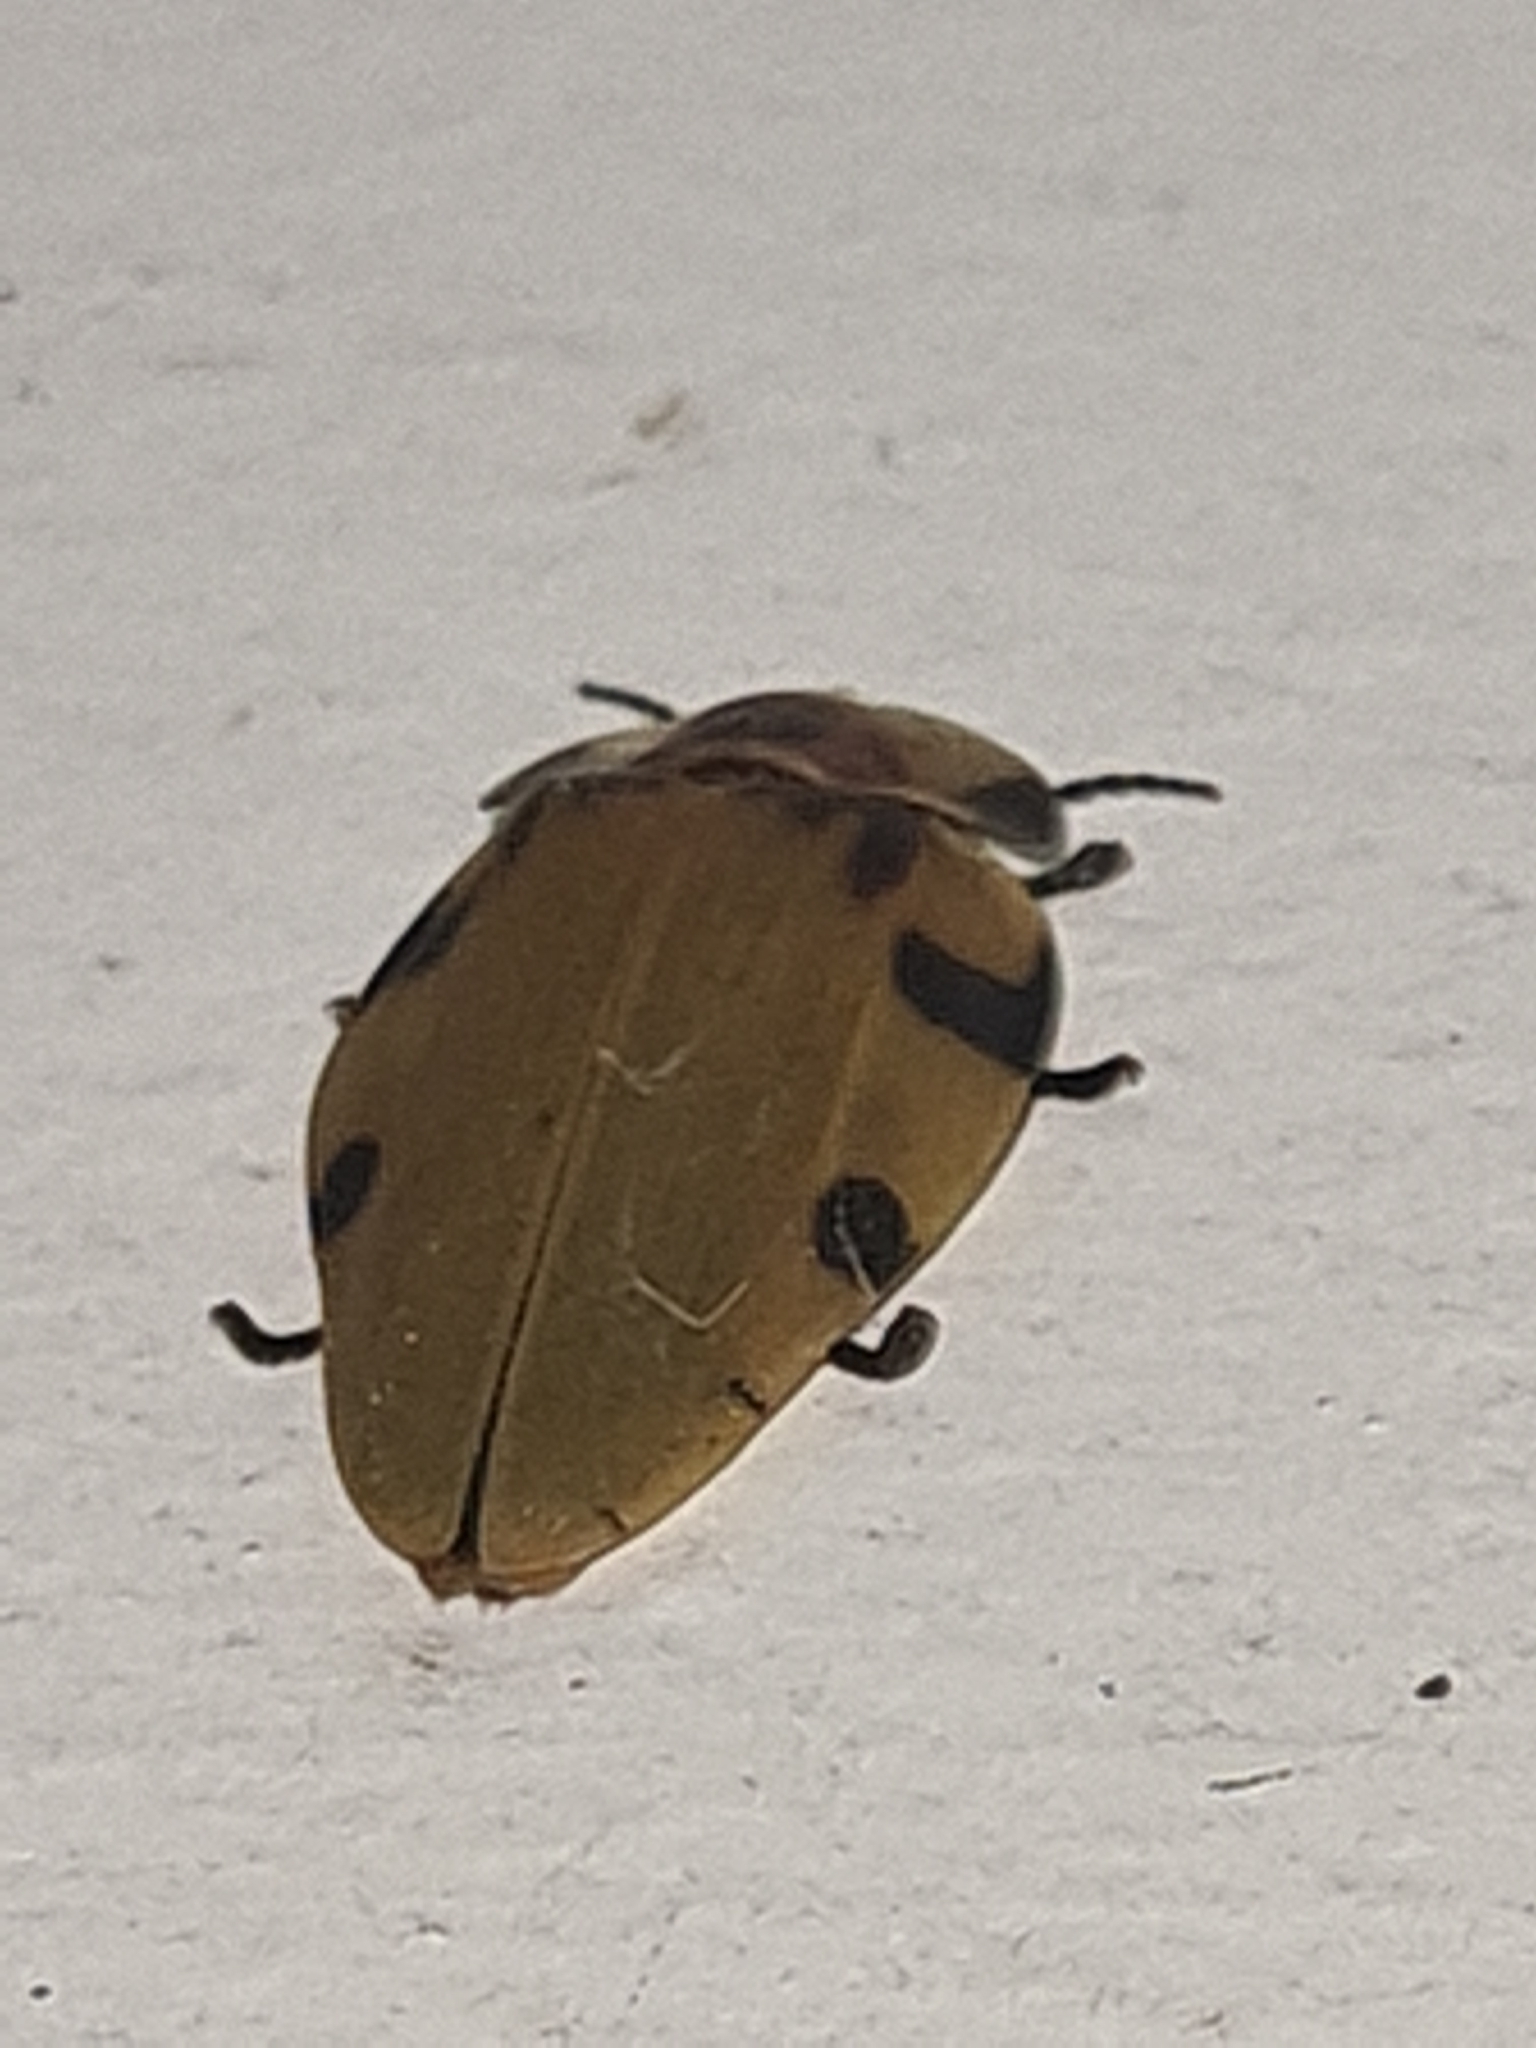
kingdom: Animalia
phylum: Arthropoda
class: Insecta
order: Coleoptera
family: Lampyridae
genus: Aspisoma
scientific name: Aspisoma sticticum
